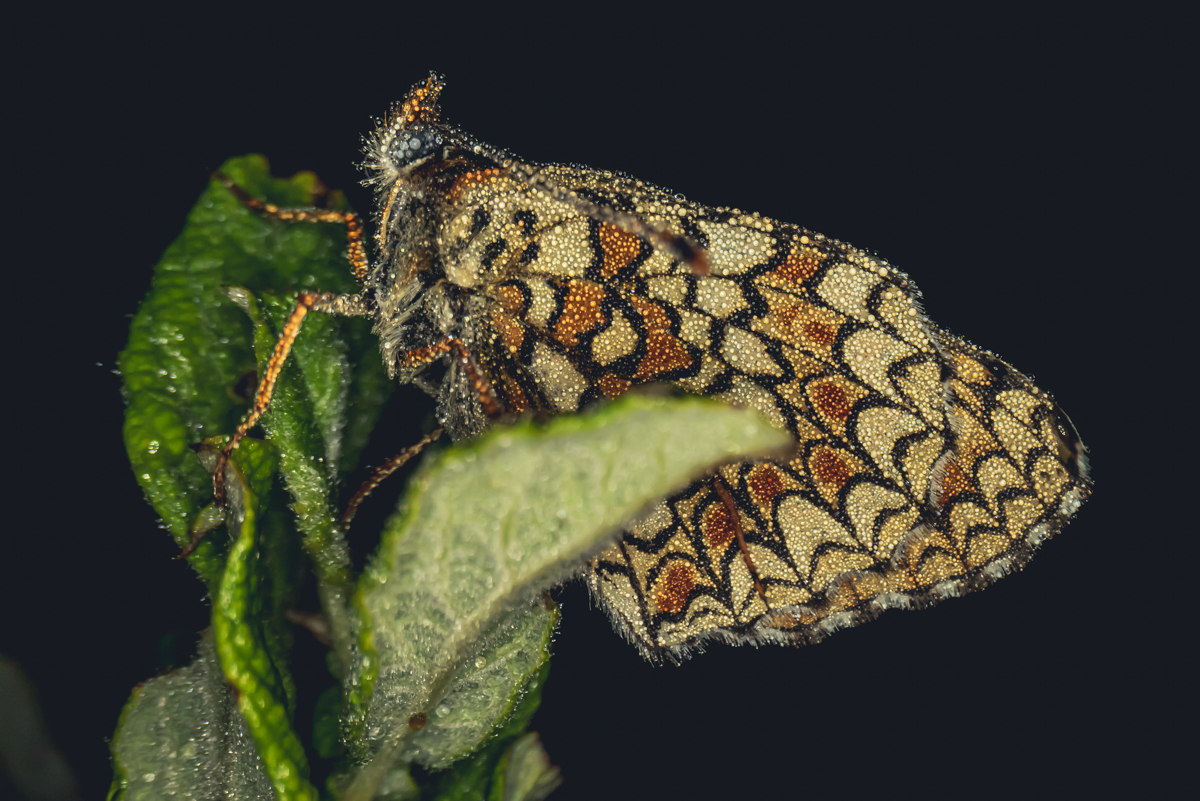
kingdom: Animalia
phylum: Arthropoda
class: Insecta
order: Lepidoptera
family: Nymphalidae
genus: Melitaea
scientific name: Melitaea phoebe
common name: Knapweed fritillary
